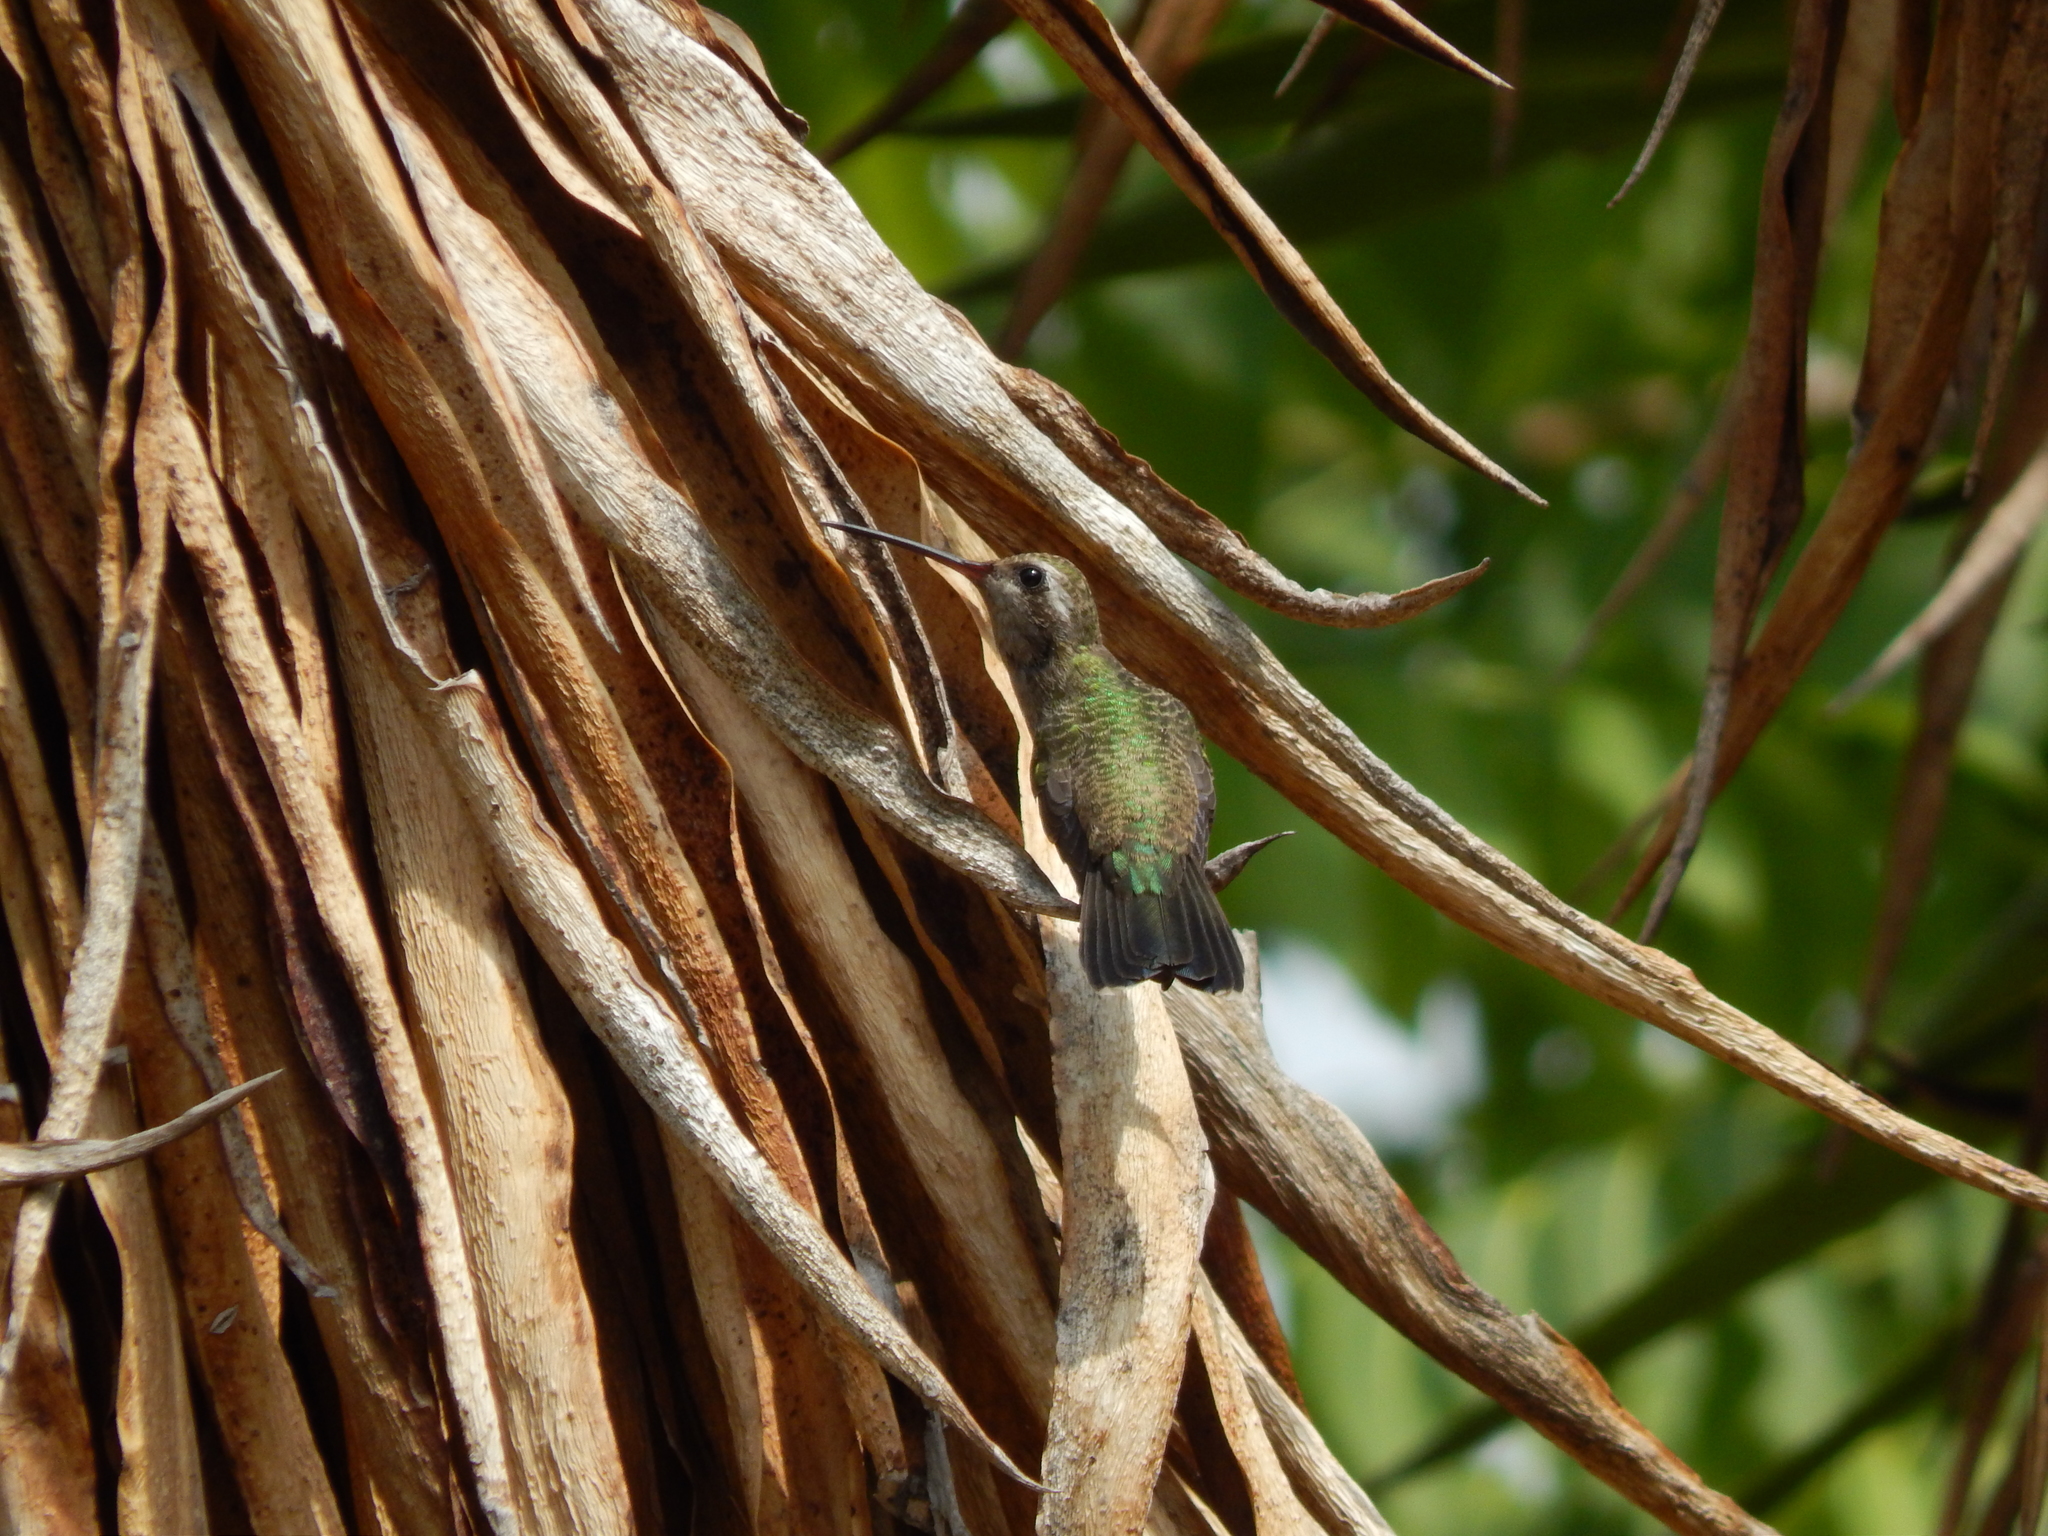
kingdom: Animalia
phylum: Chordata
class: Aves
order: Apodiformes
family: Trochilidae
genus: Cynanthus
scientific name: Cynanthus latirostris
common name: Broad-billed hummingbird
